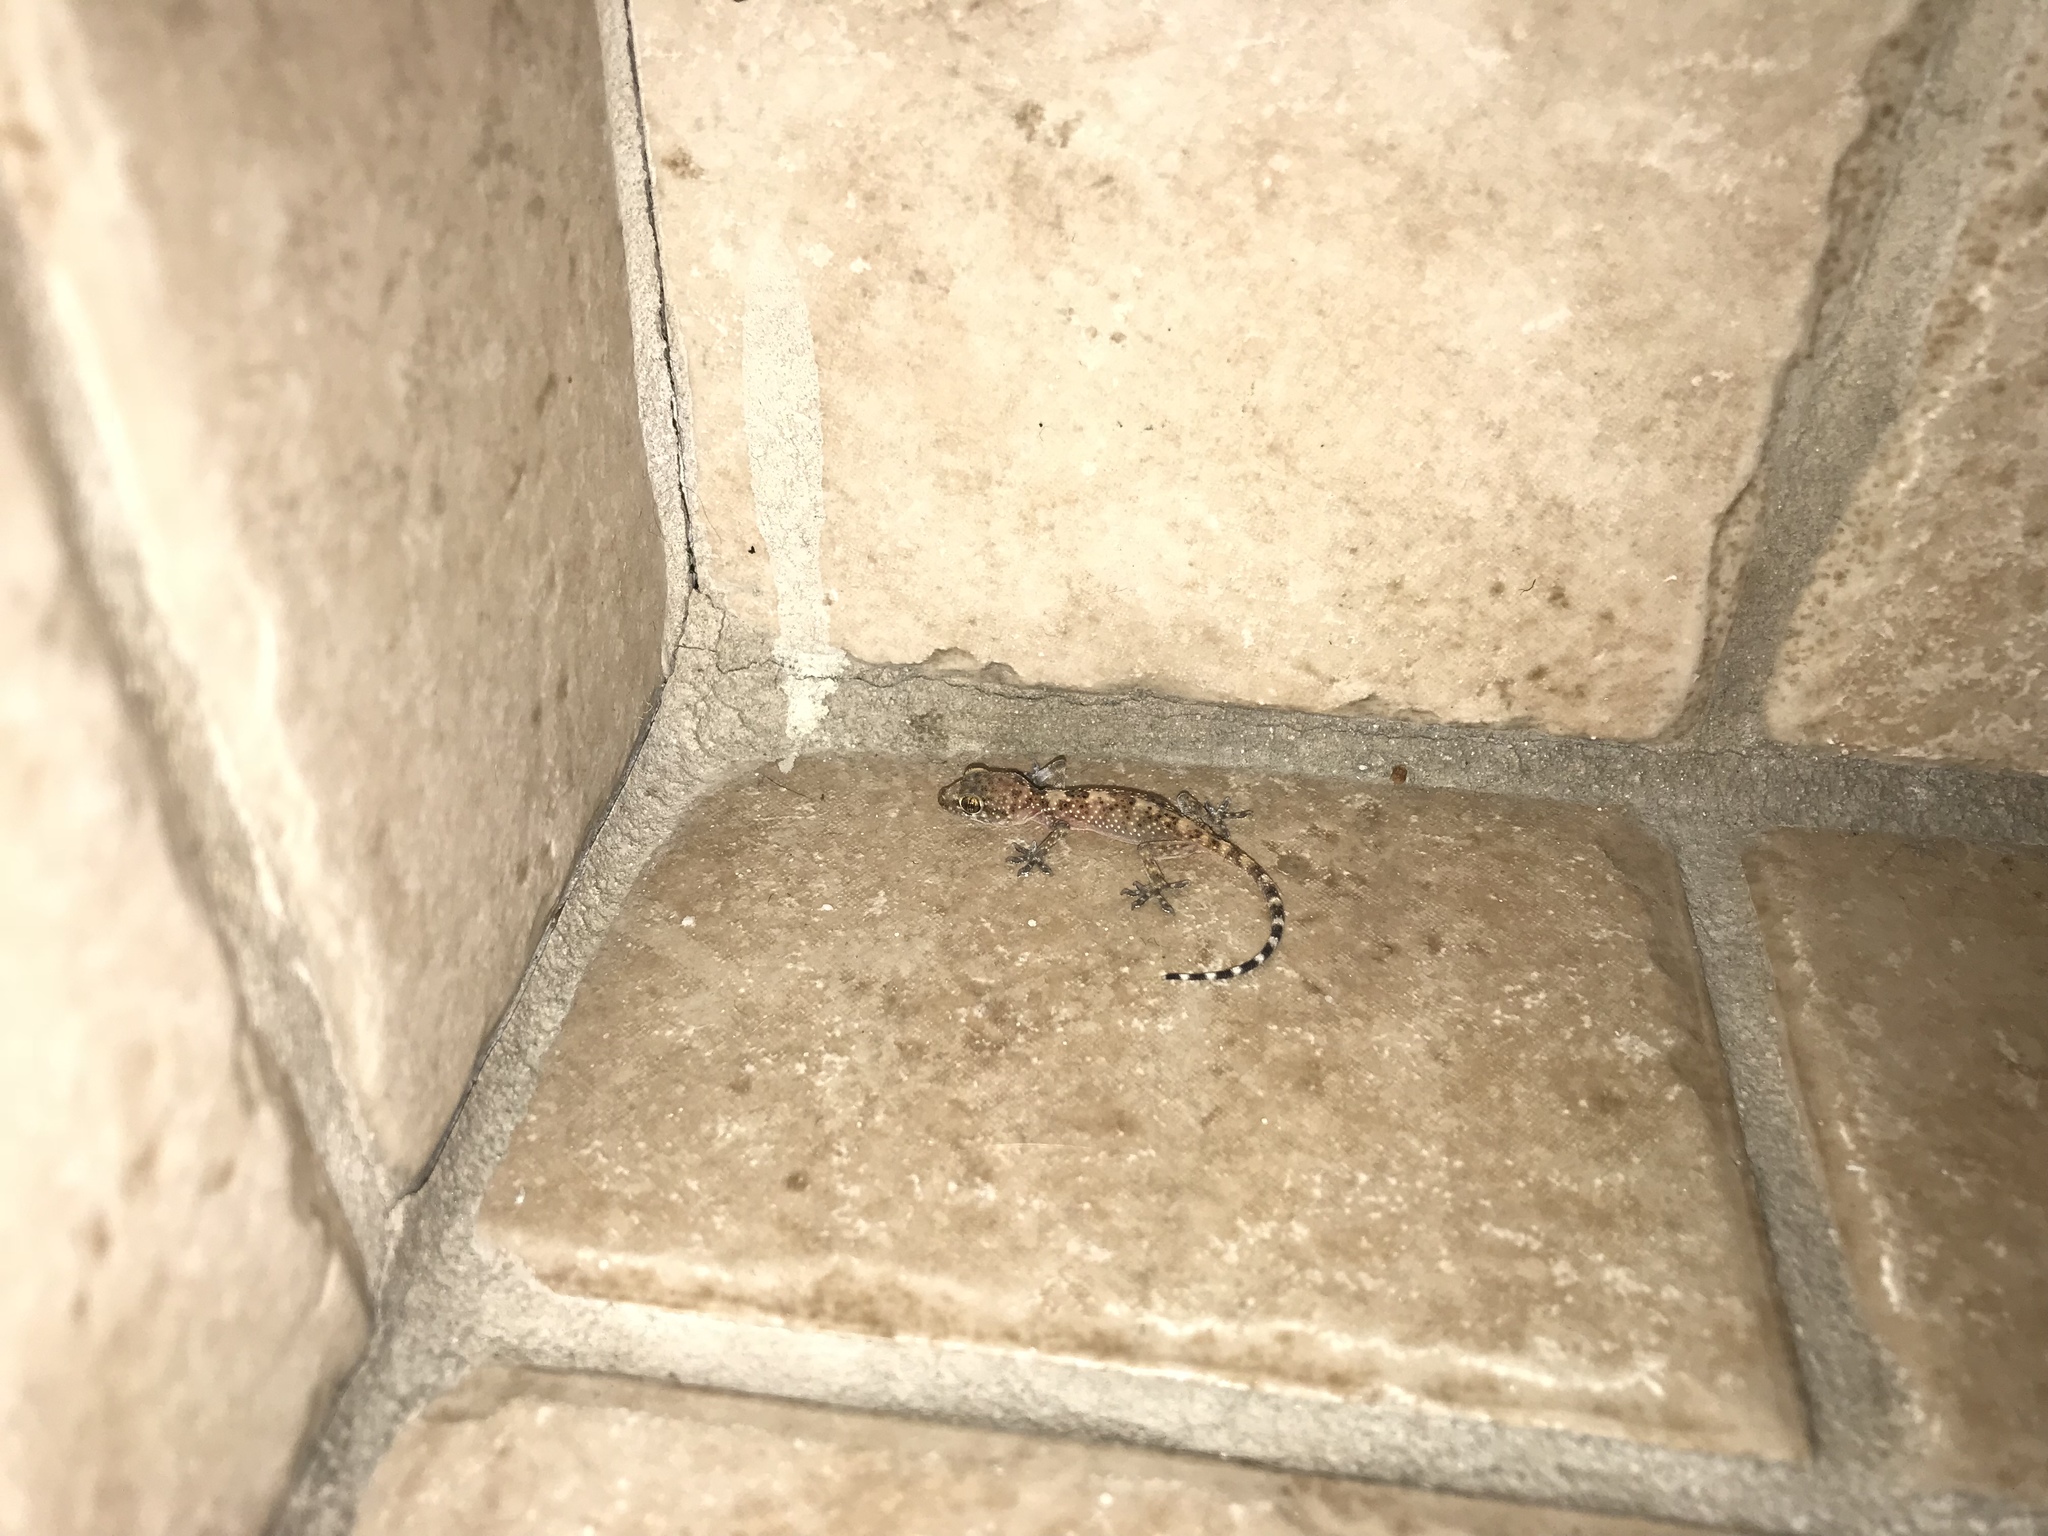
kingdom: Animalia
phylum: Chordata
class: Squamata
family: Gekkonidae
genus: Hemidactylus
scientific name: Hemidactylus turcicus
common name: Turkish gecko
